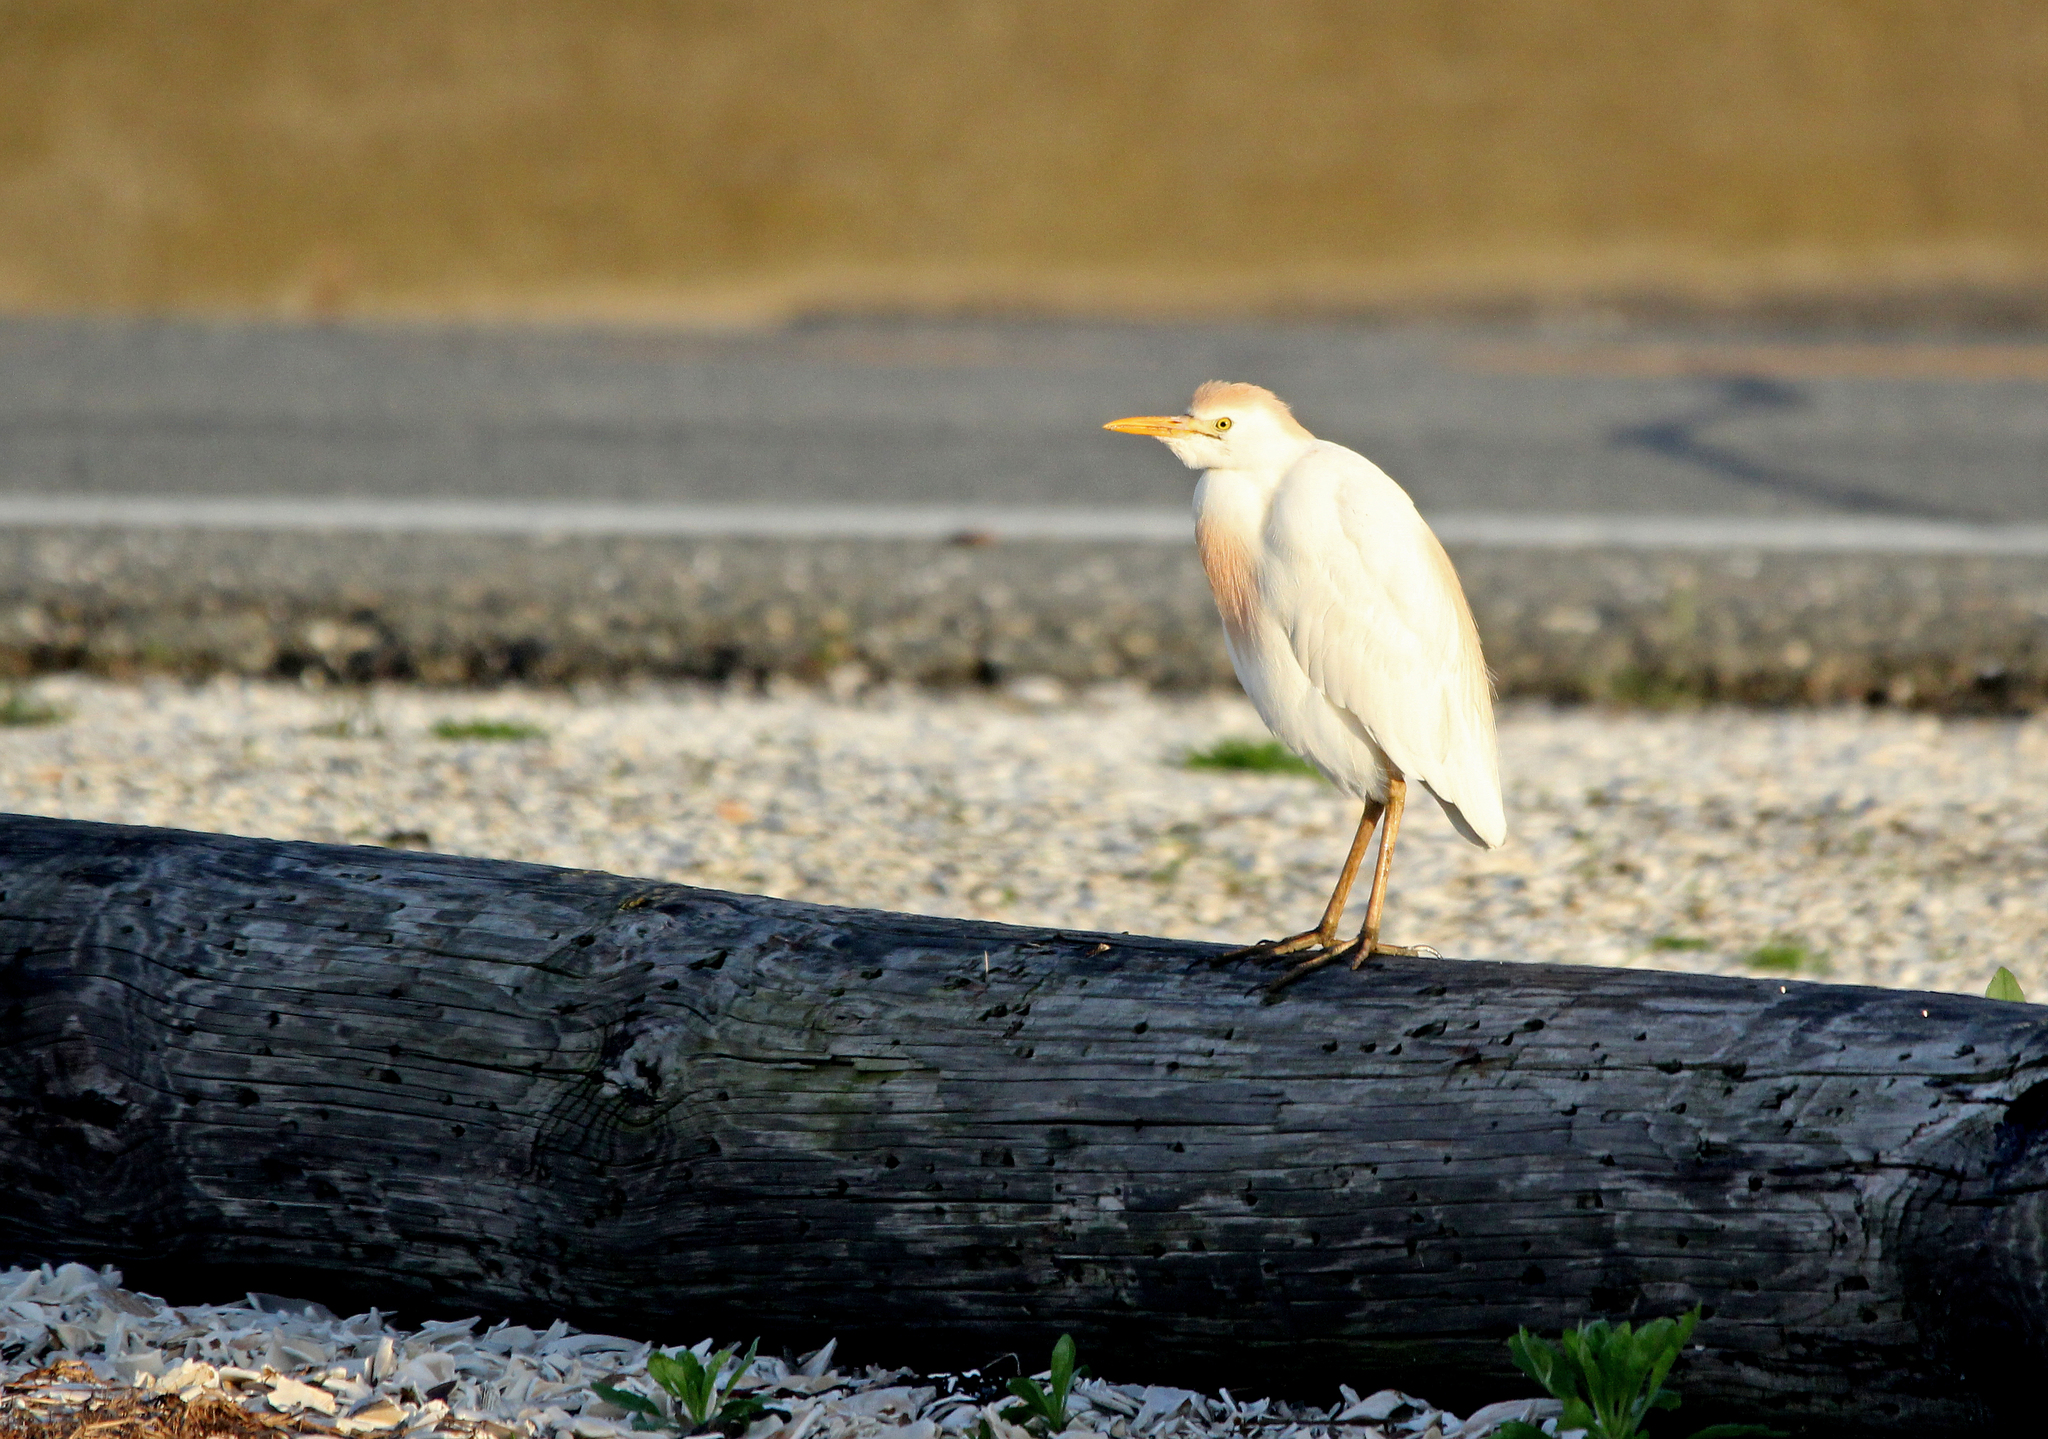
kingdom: Animalia
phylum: Chordata
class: Aves
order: Pelecaniformes
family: Ardeidae
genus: Bubulcus
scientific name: Bubulcus ibis
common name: Cattle egret
